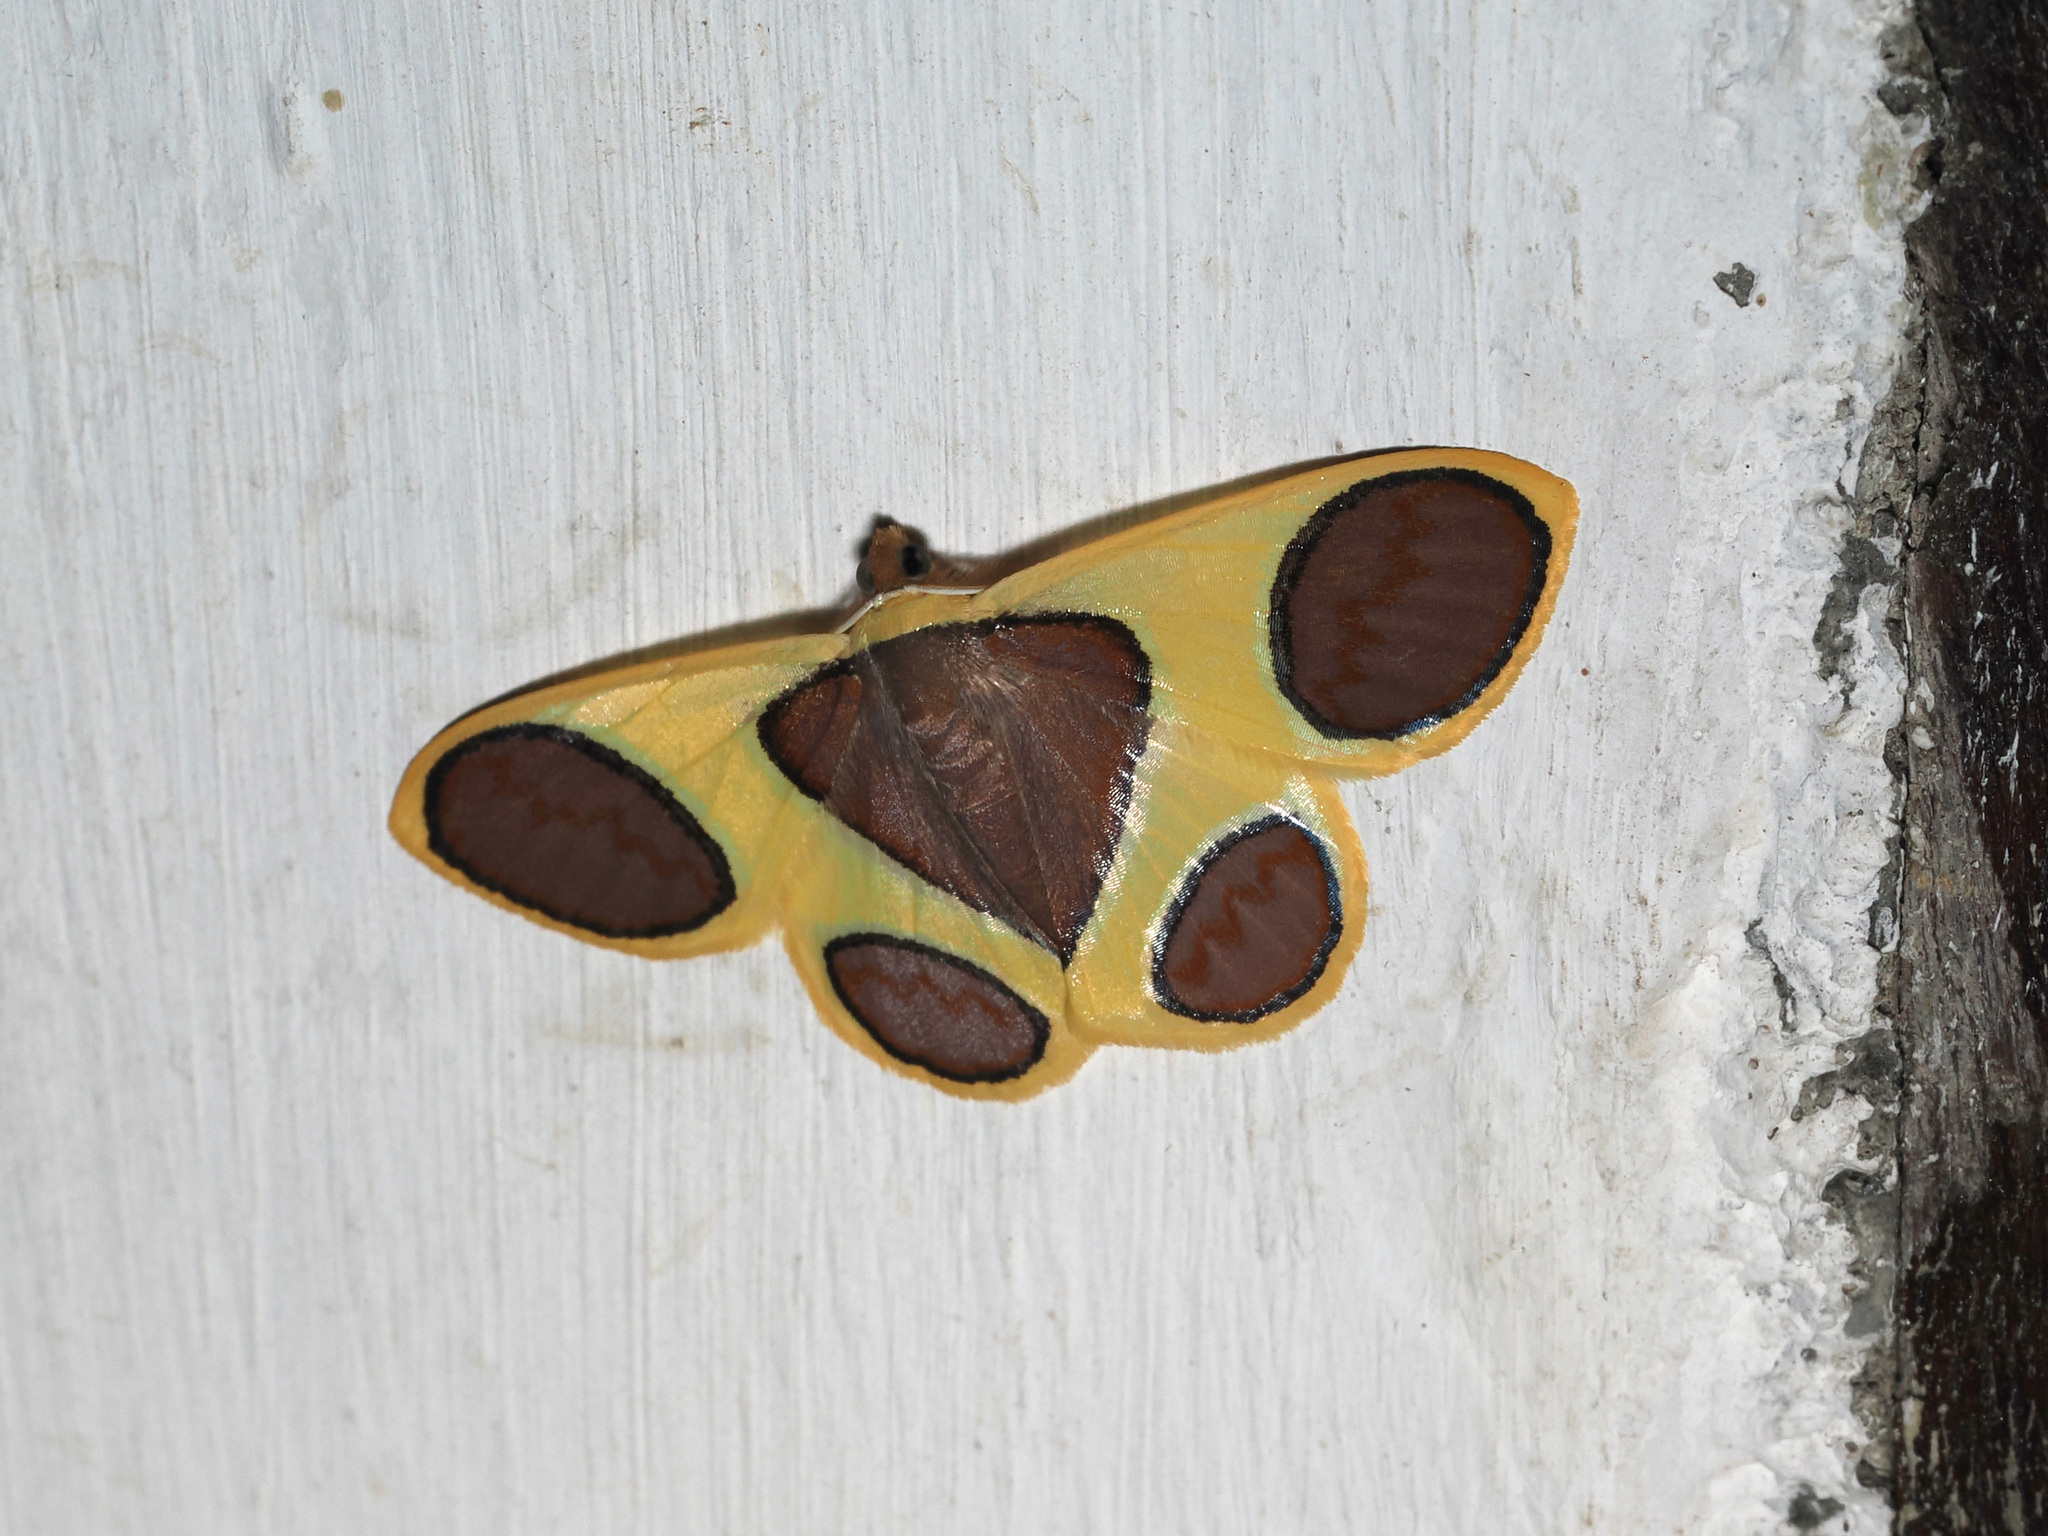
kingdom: Animalia
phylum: Arthropoda
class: Insecta
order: Lepidoptera
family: Geometridae
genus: Plutodes
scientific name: Plutodes argentilauta
